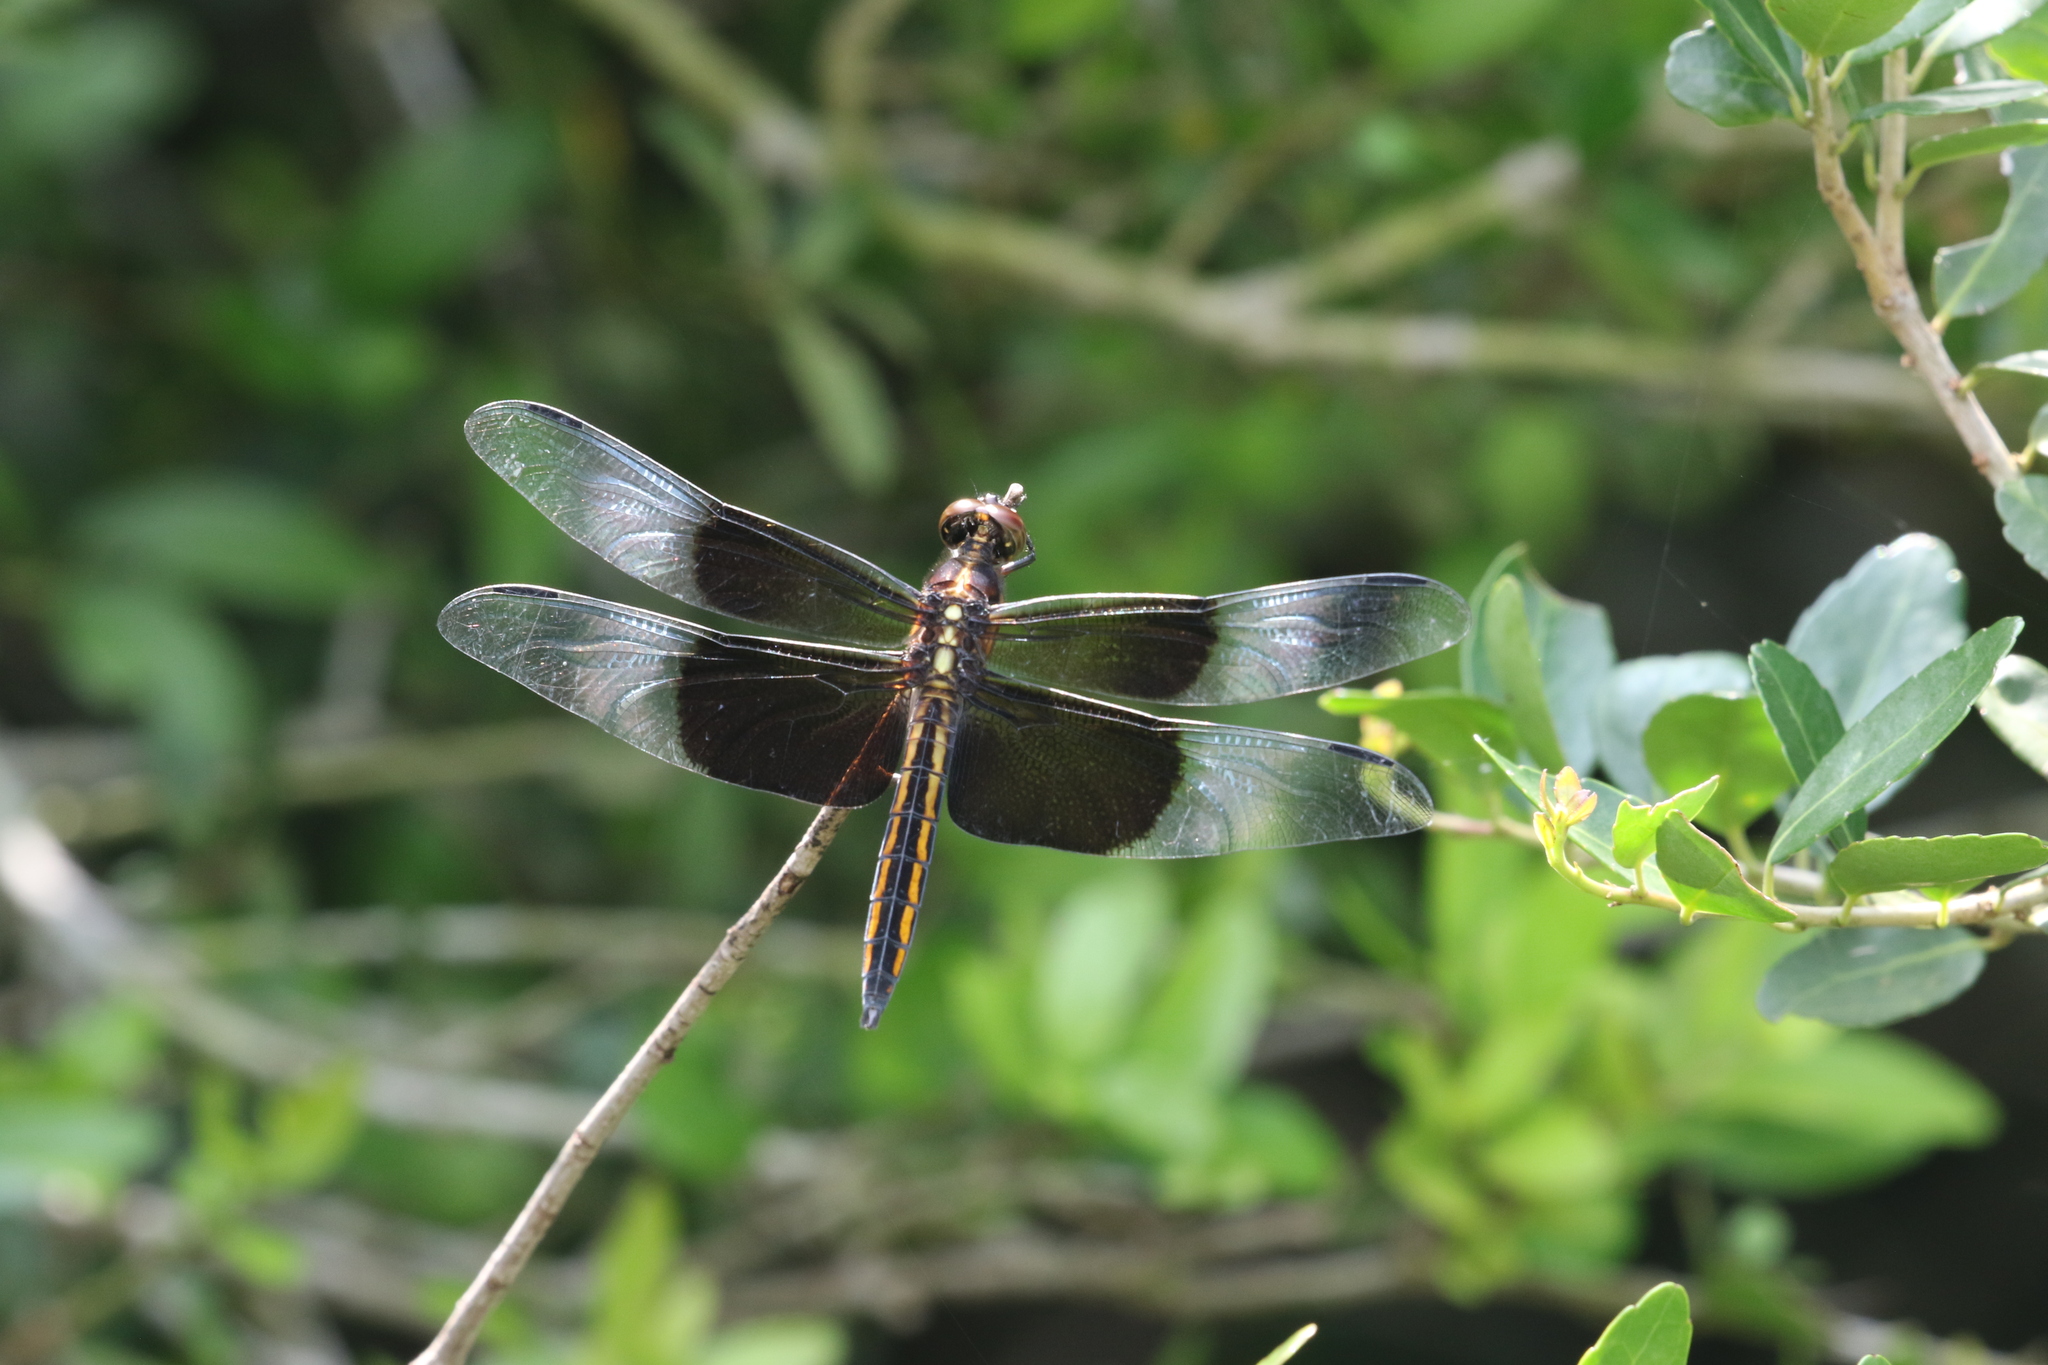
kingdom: Animalia
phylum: Arthropoda
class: Insecta
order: Odonata
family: Libellulidae
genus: Libellula
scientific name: Libellula luctuosa
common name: Widow skimmer
